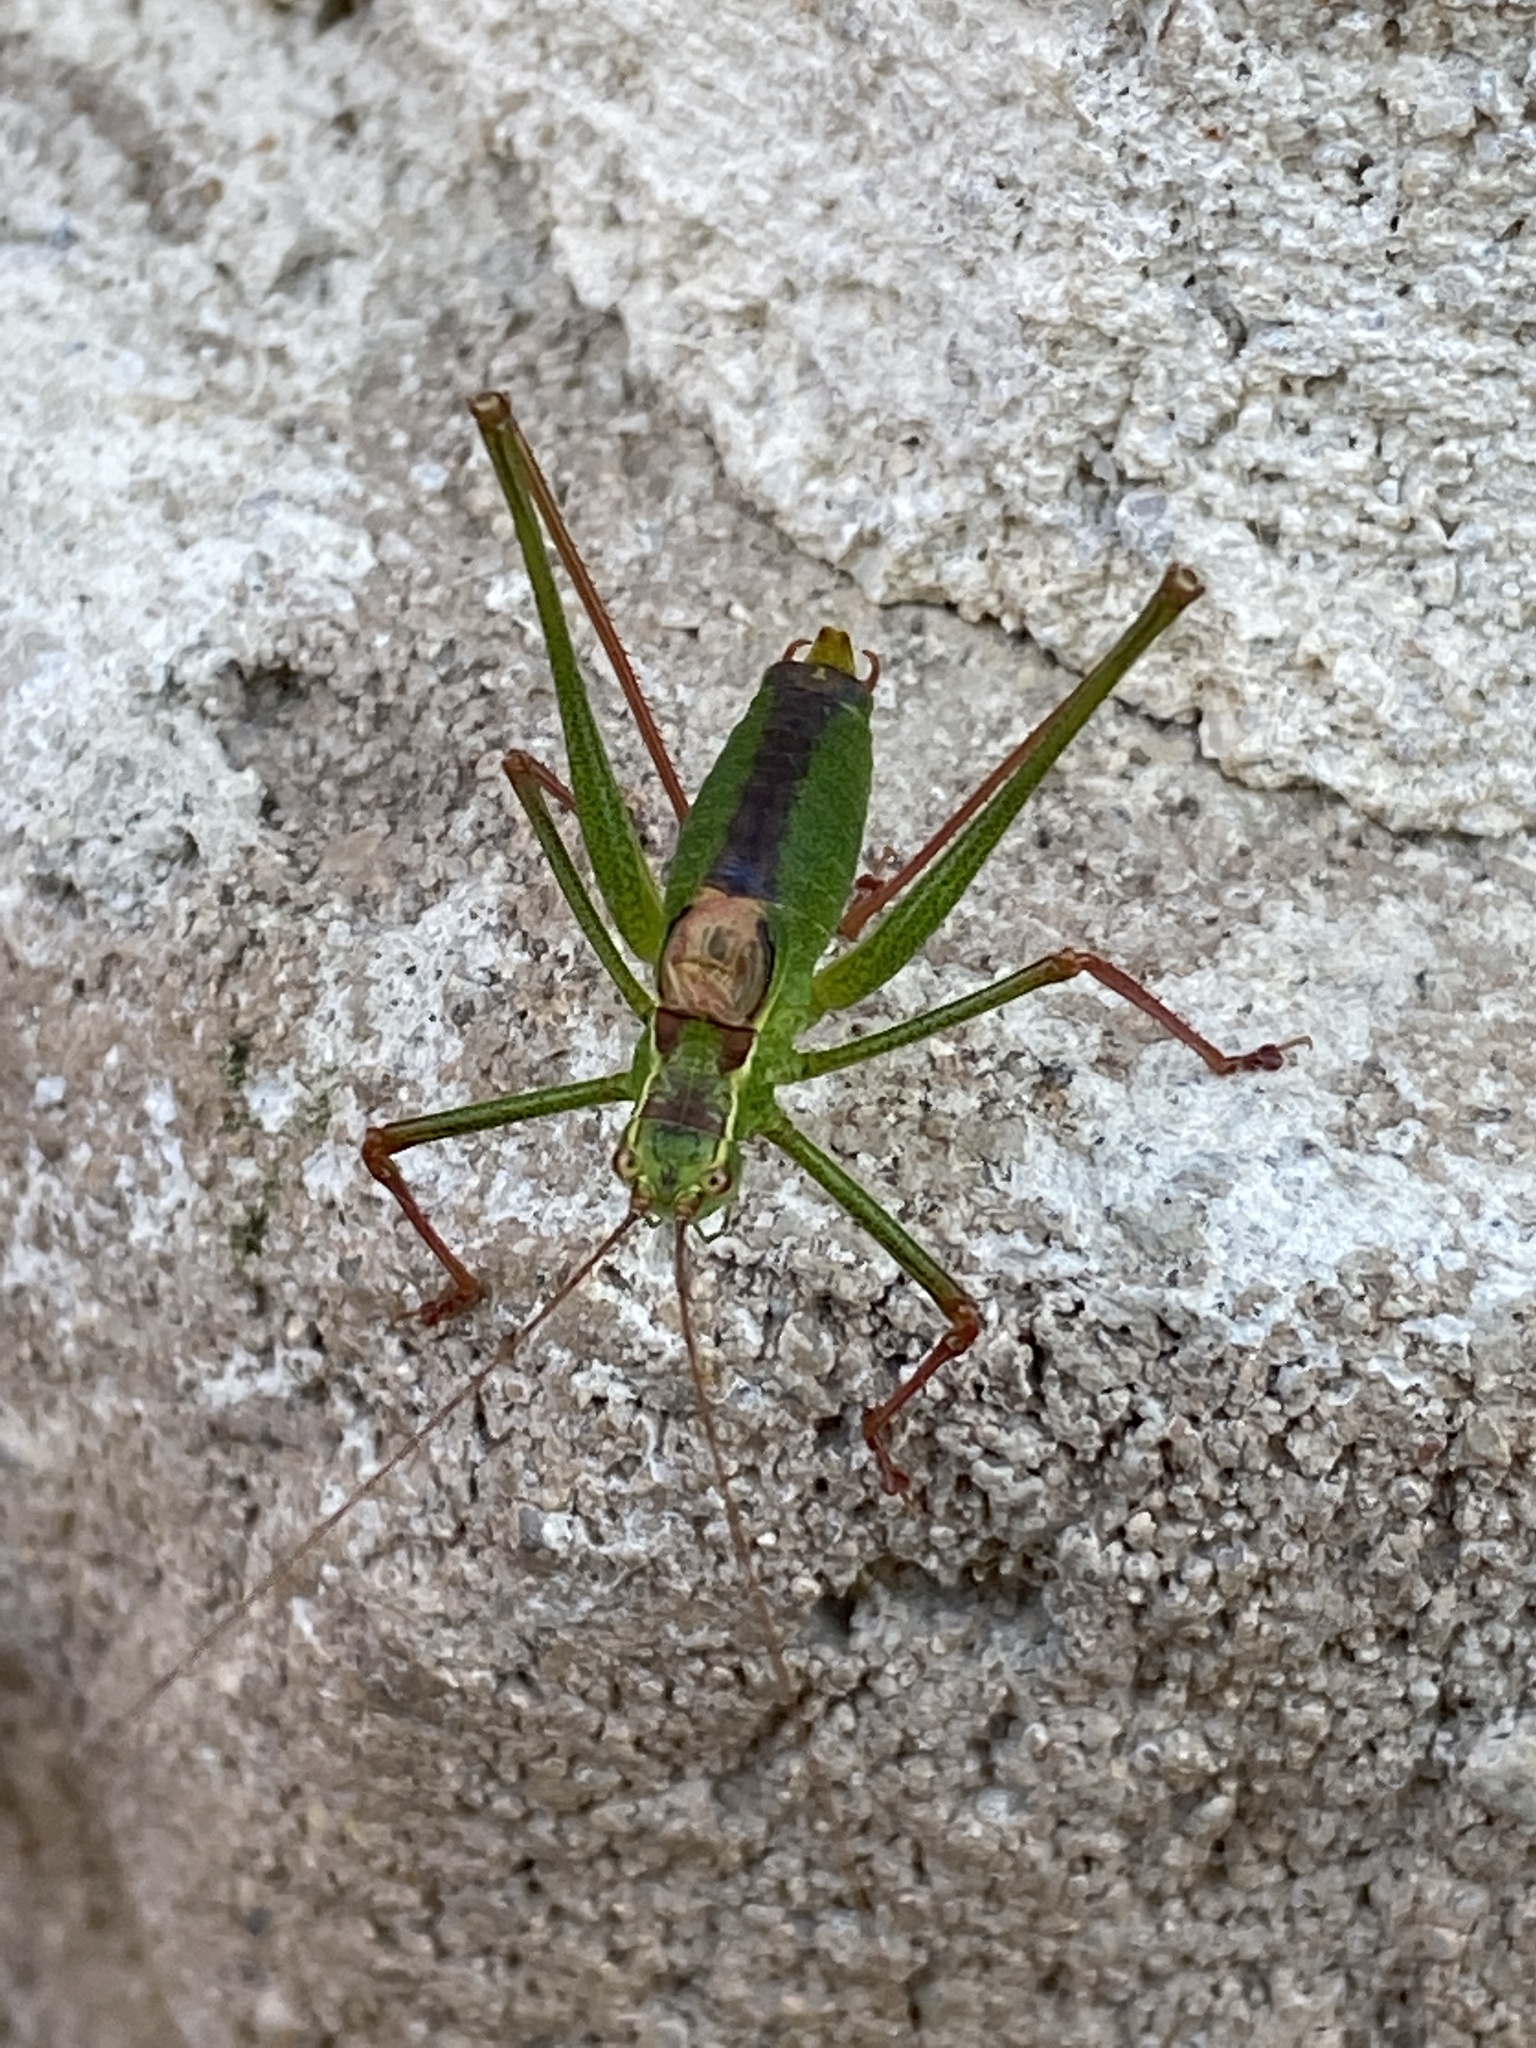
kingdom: Animalia
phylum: Arthropoda
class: Insecta
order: Orthoptera
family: Tettigoniidae
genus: Leptophyes
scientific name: Leptophyes punctatissima
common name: Speckled bush-cricket
